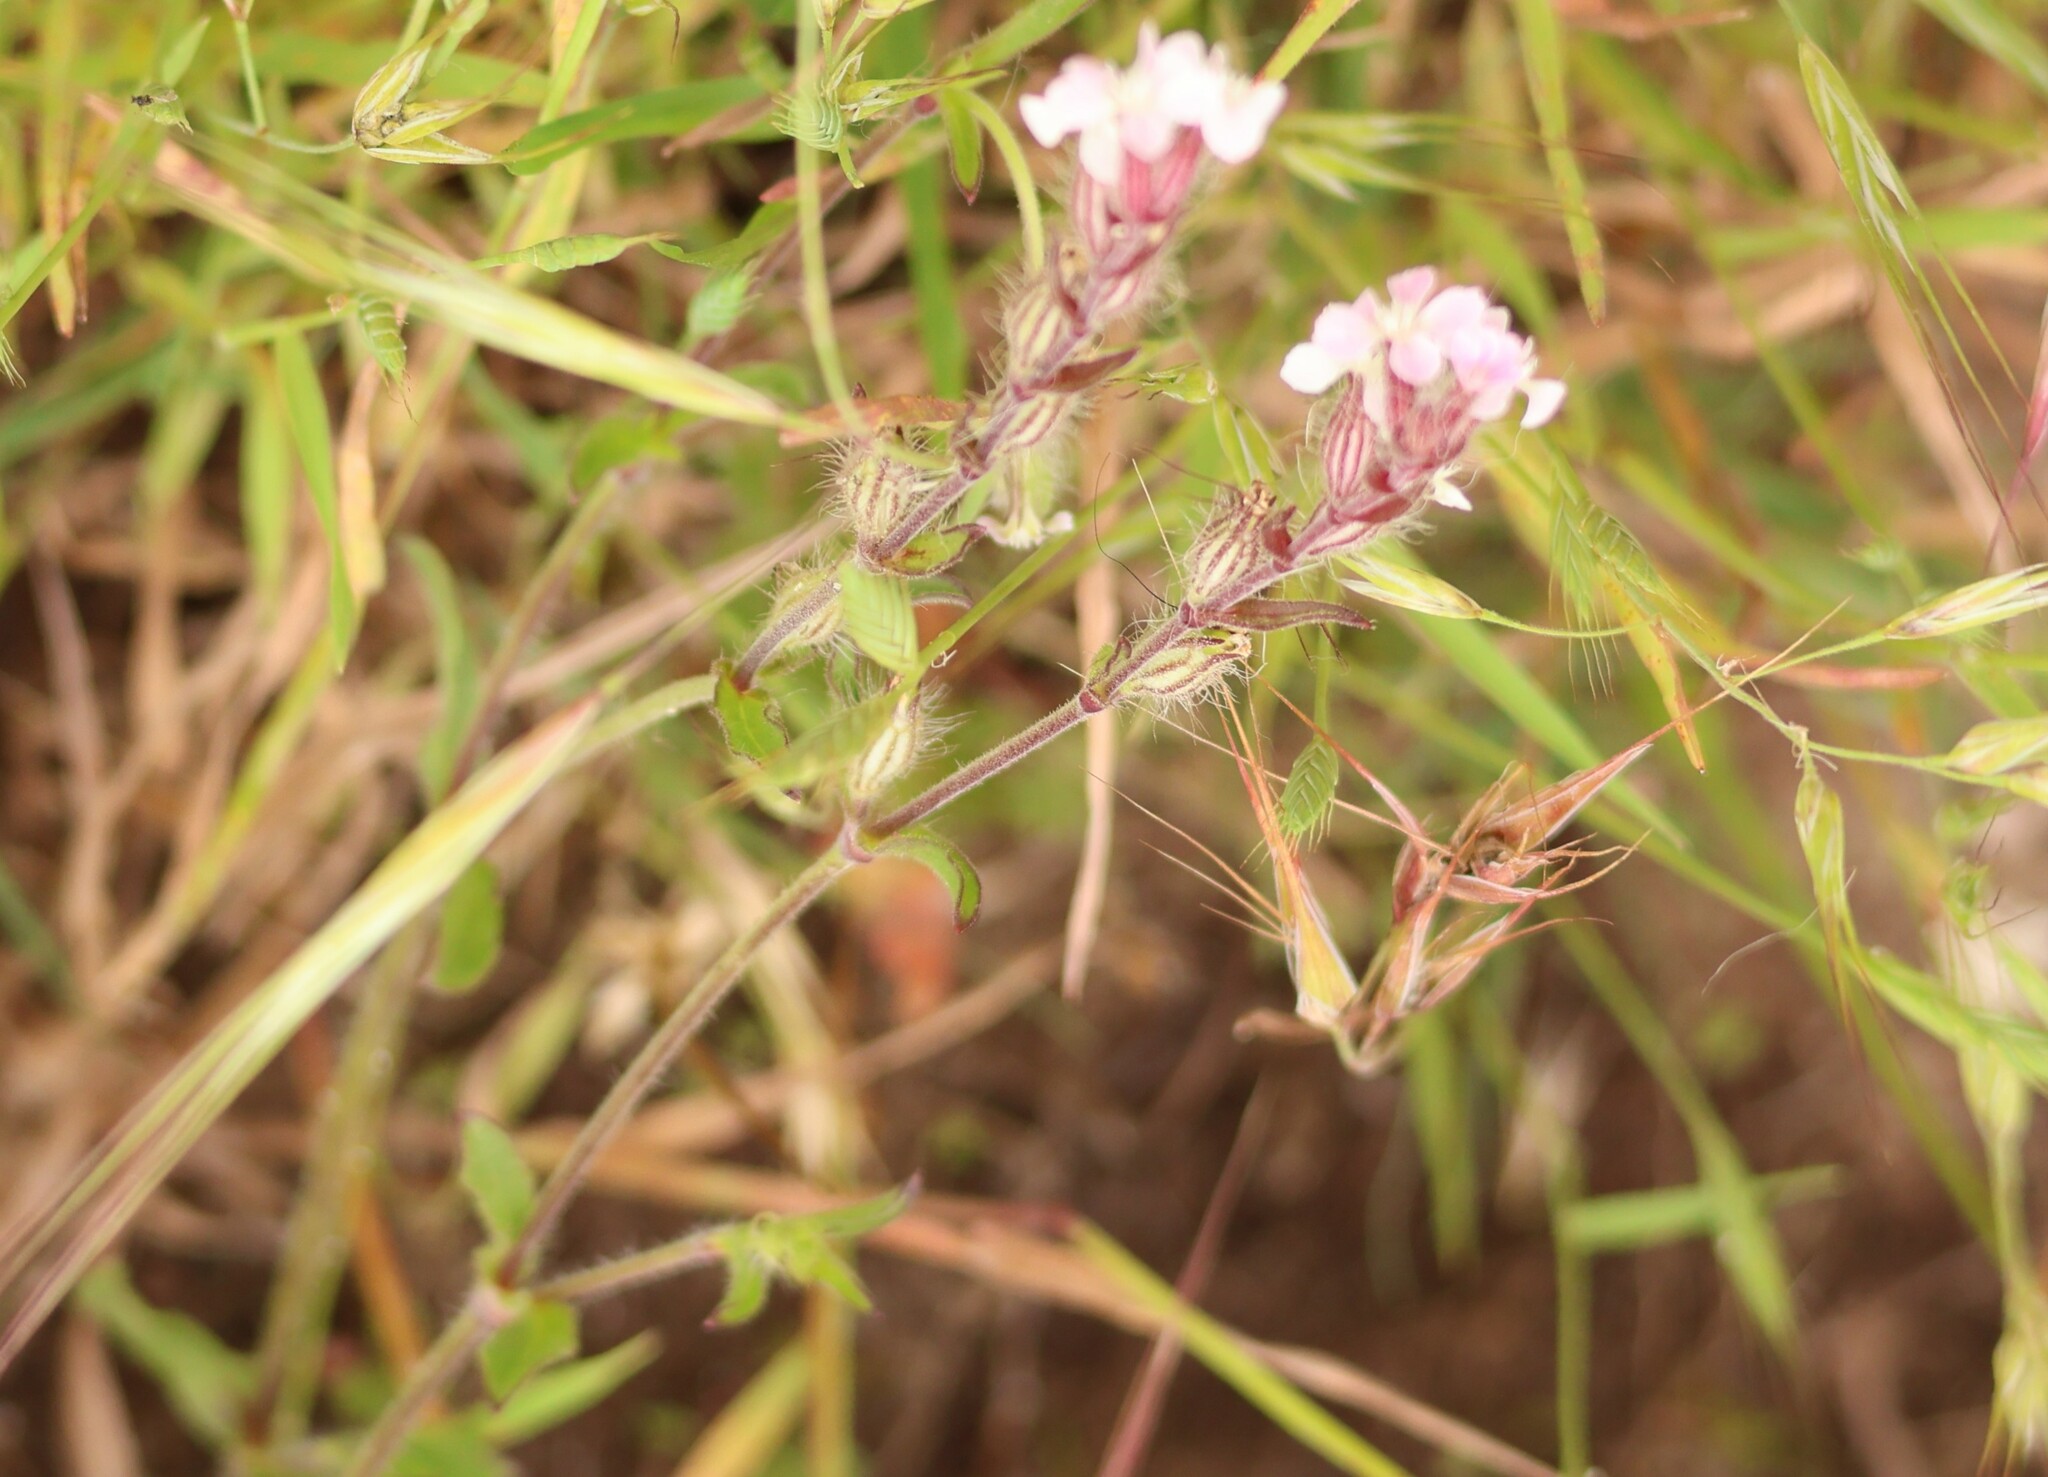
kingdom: Plantae
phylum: Tracheophyta
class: Magnoliopsida
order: Caryophyllales
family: Caryophyllaceae
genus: Silene
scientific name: Silene gallica
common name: Small-flowered catchfly
